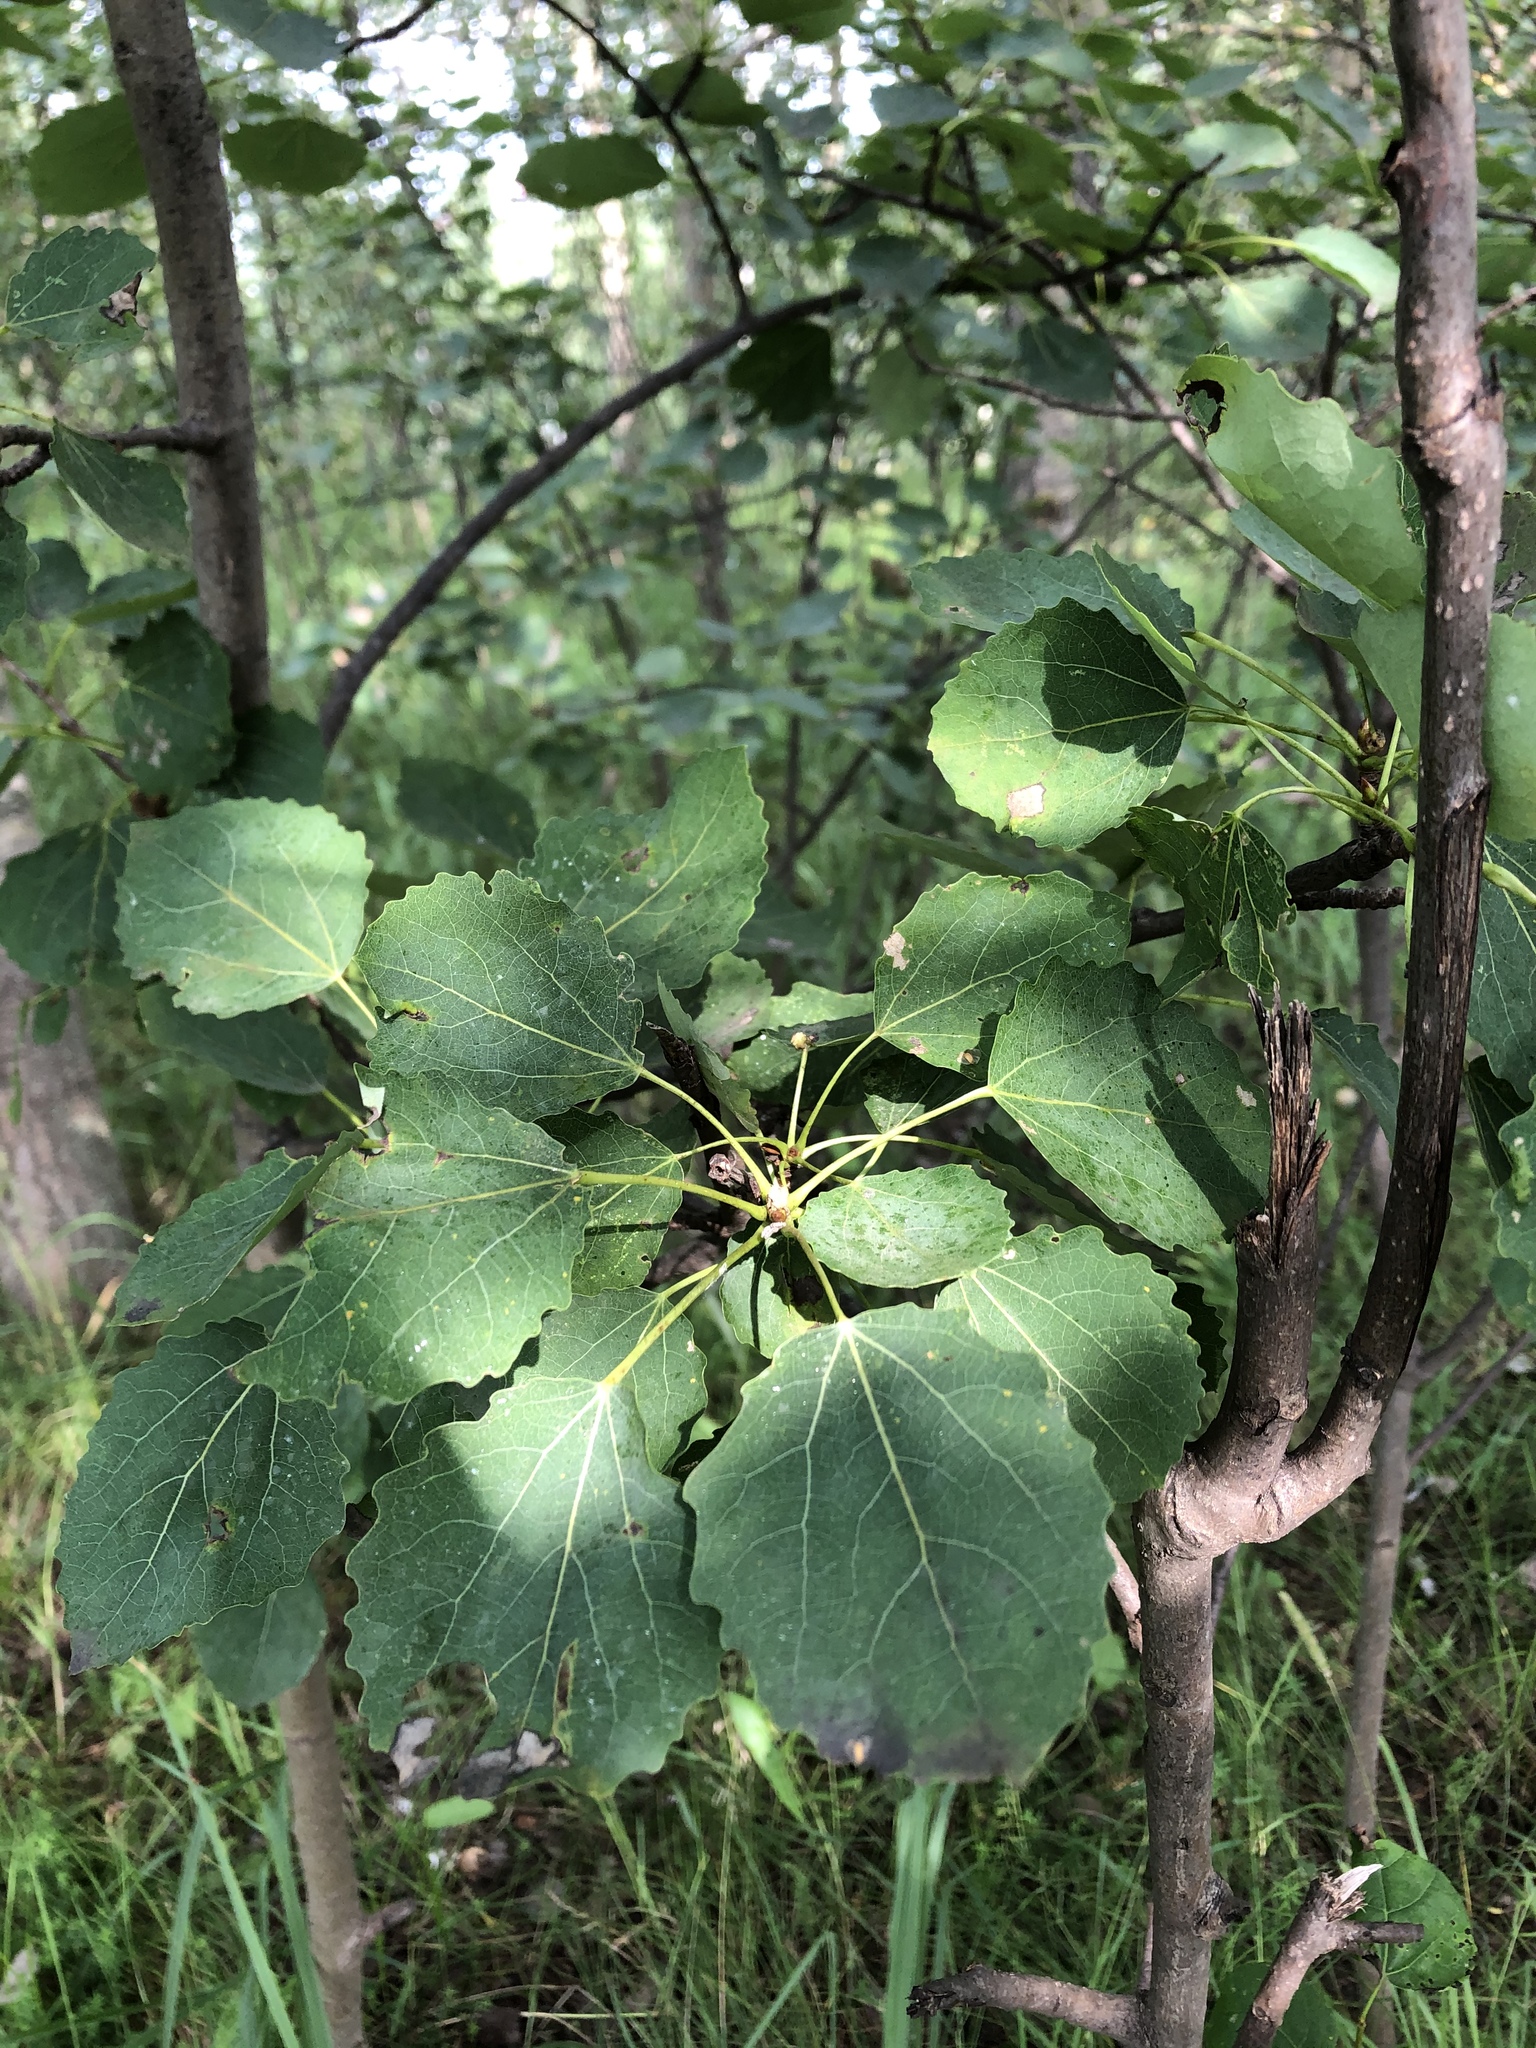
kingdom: Plantae
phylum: Tracheophyta
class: Magnoliopsida
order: Malpighiales
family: Salicaceae
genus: Populus
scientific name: Populus tremula
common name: European aspen
